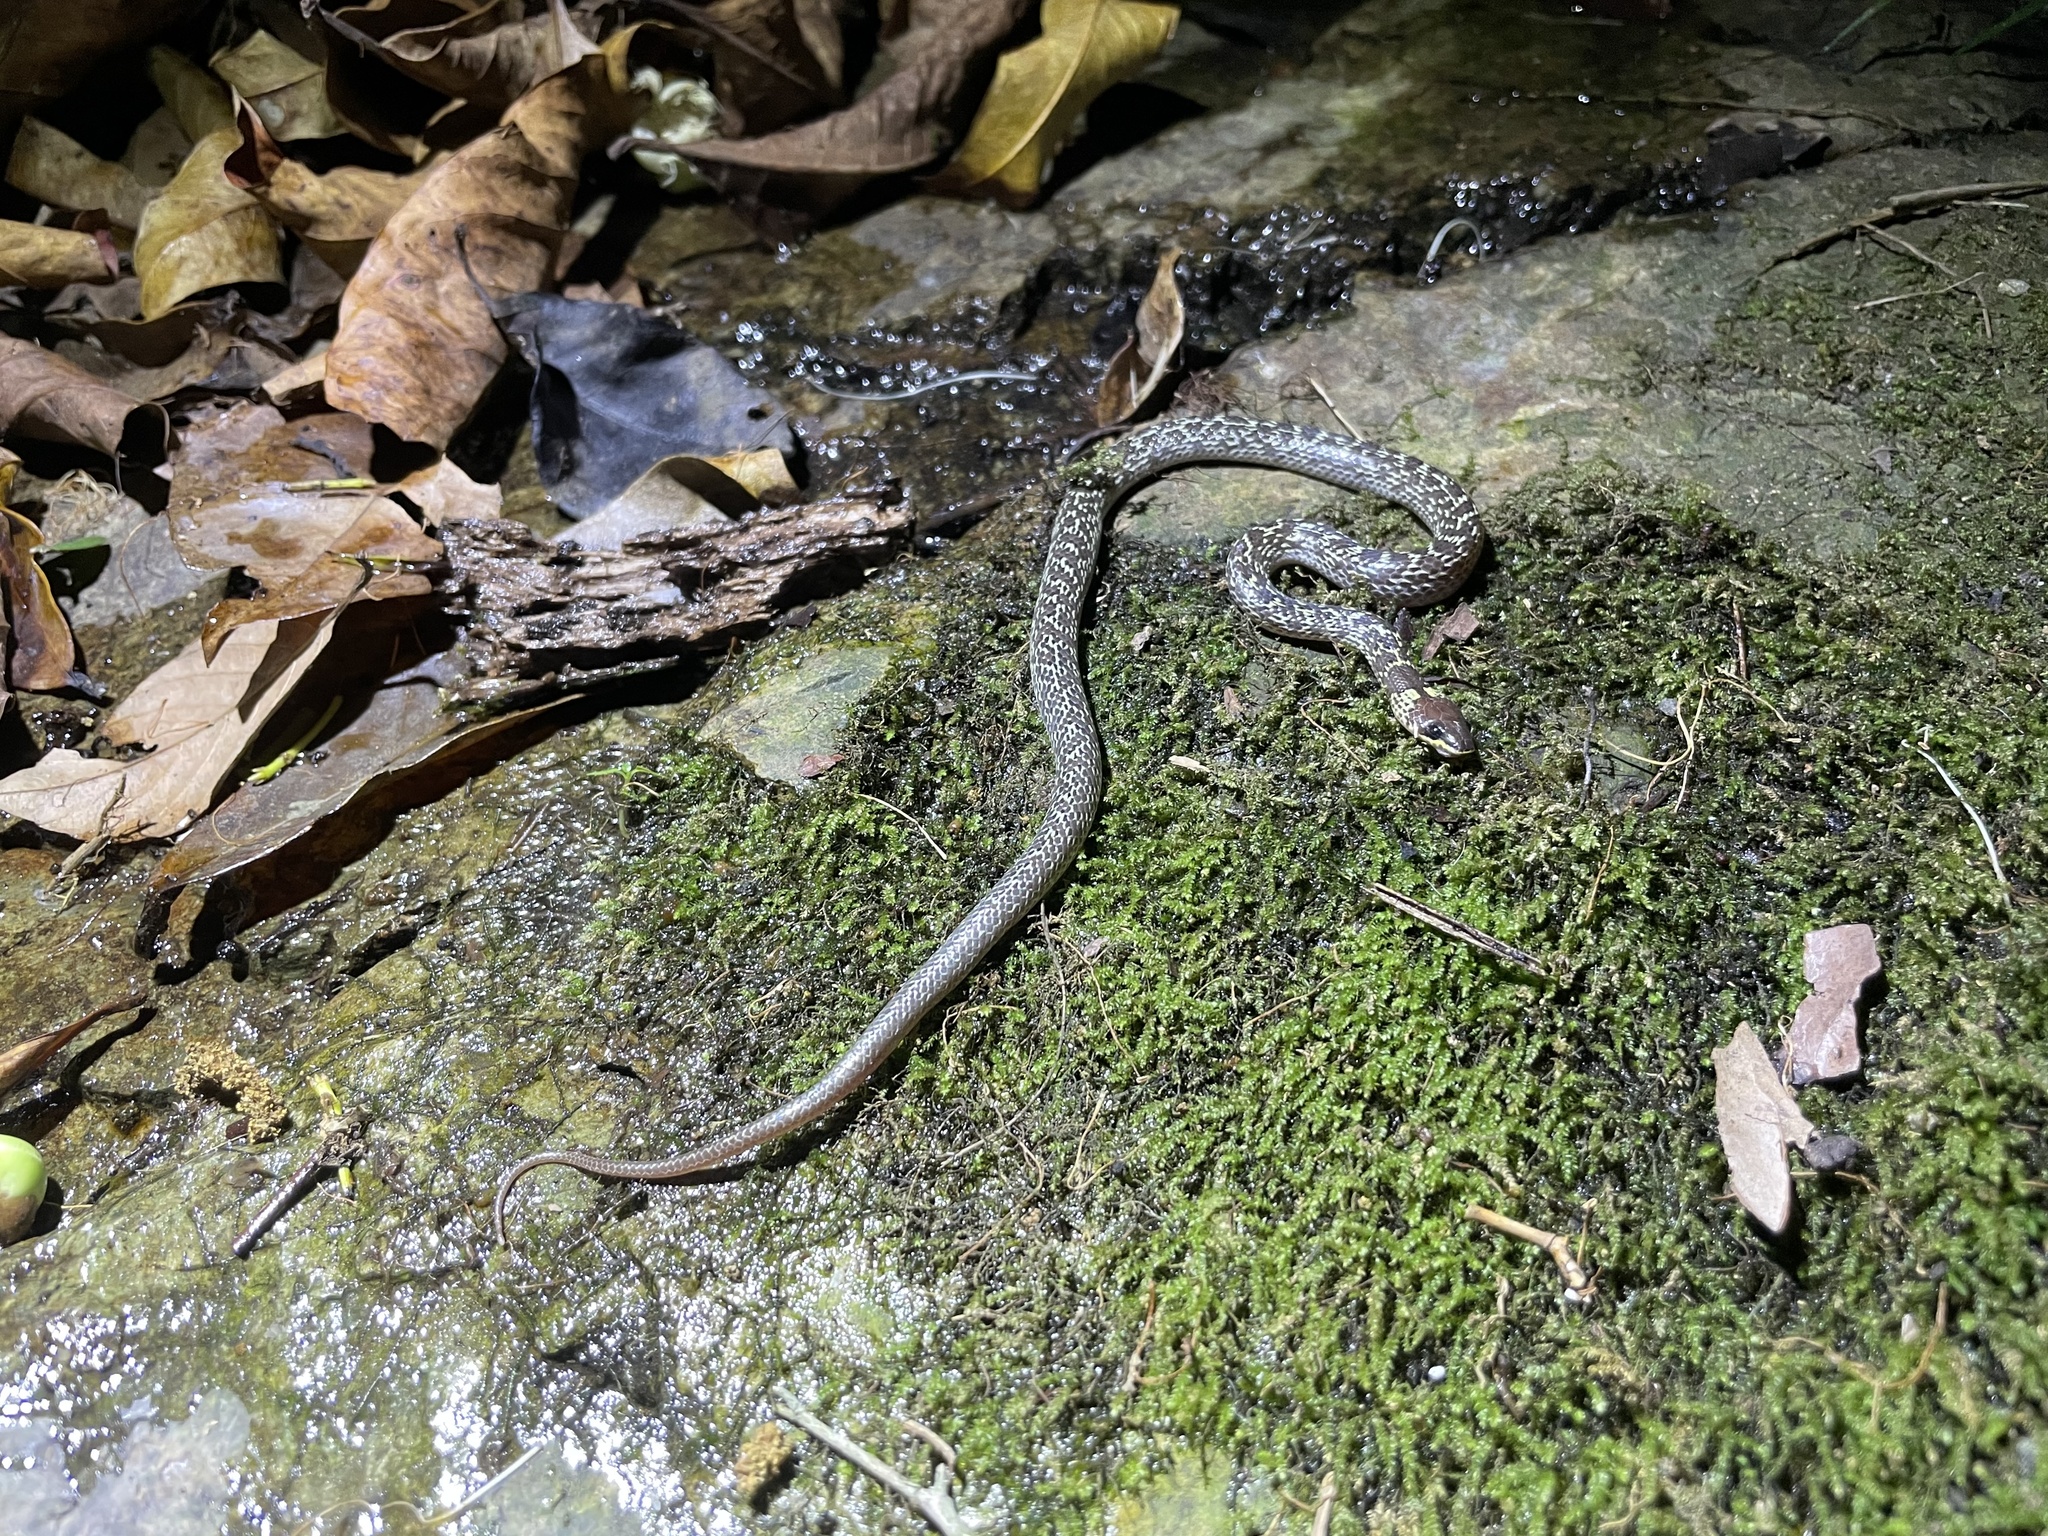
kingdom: Animalia
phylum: Chordata
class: Squamata
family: Colubridae
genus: Lycodon
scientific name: Lycodon capucinus
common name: Common wold snake/house snake
